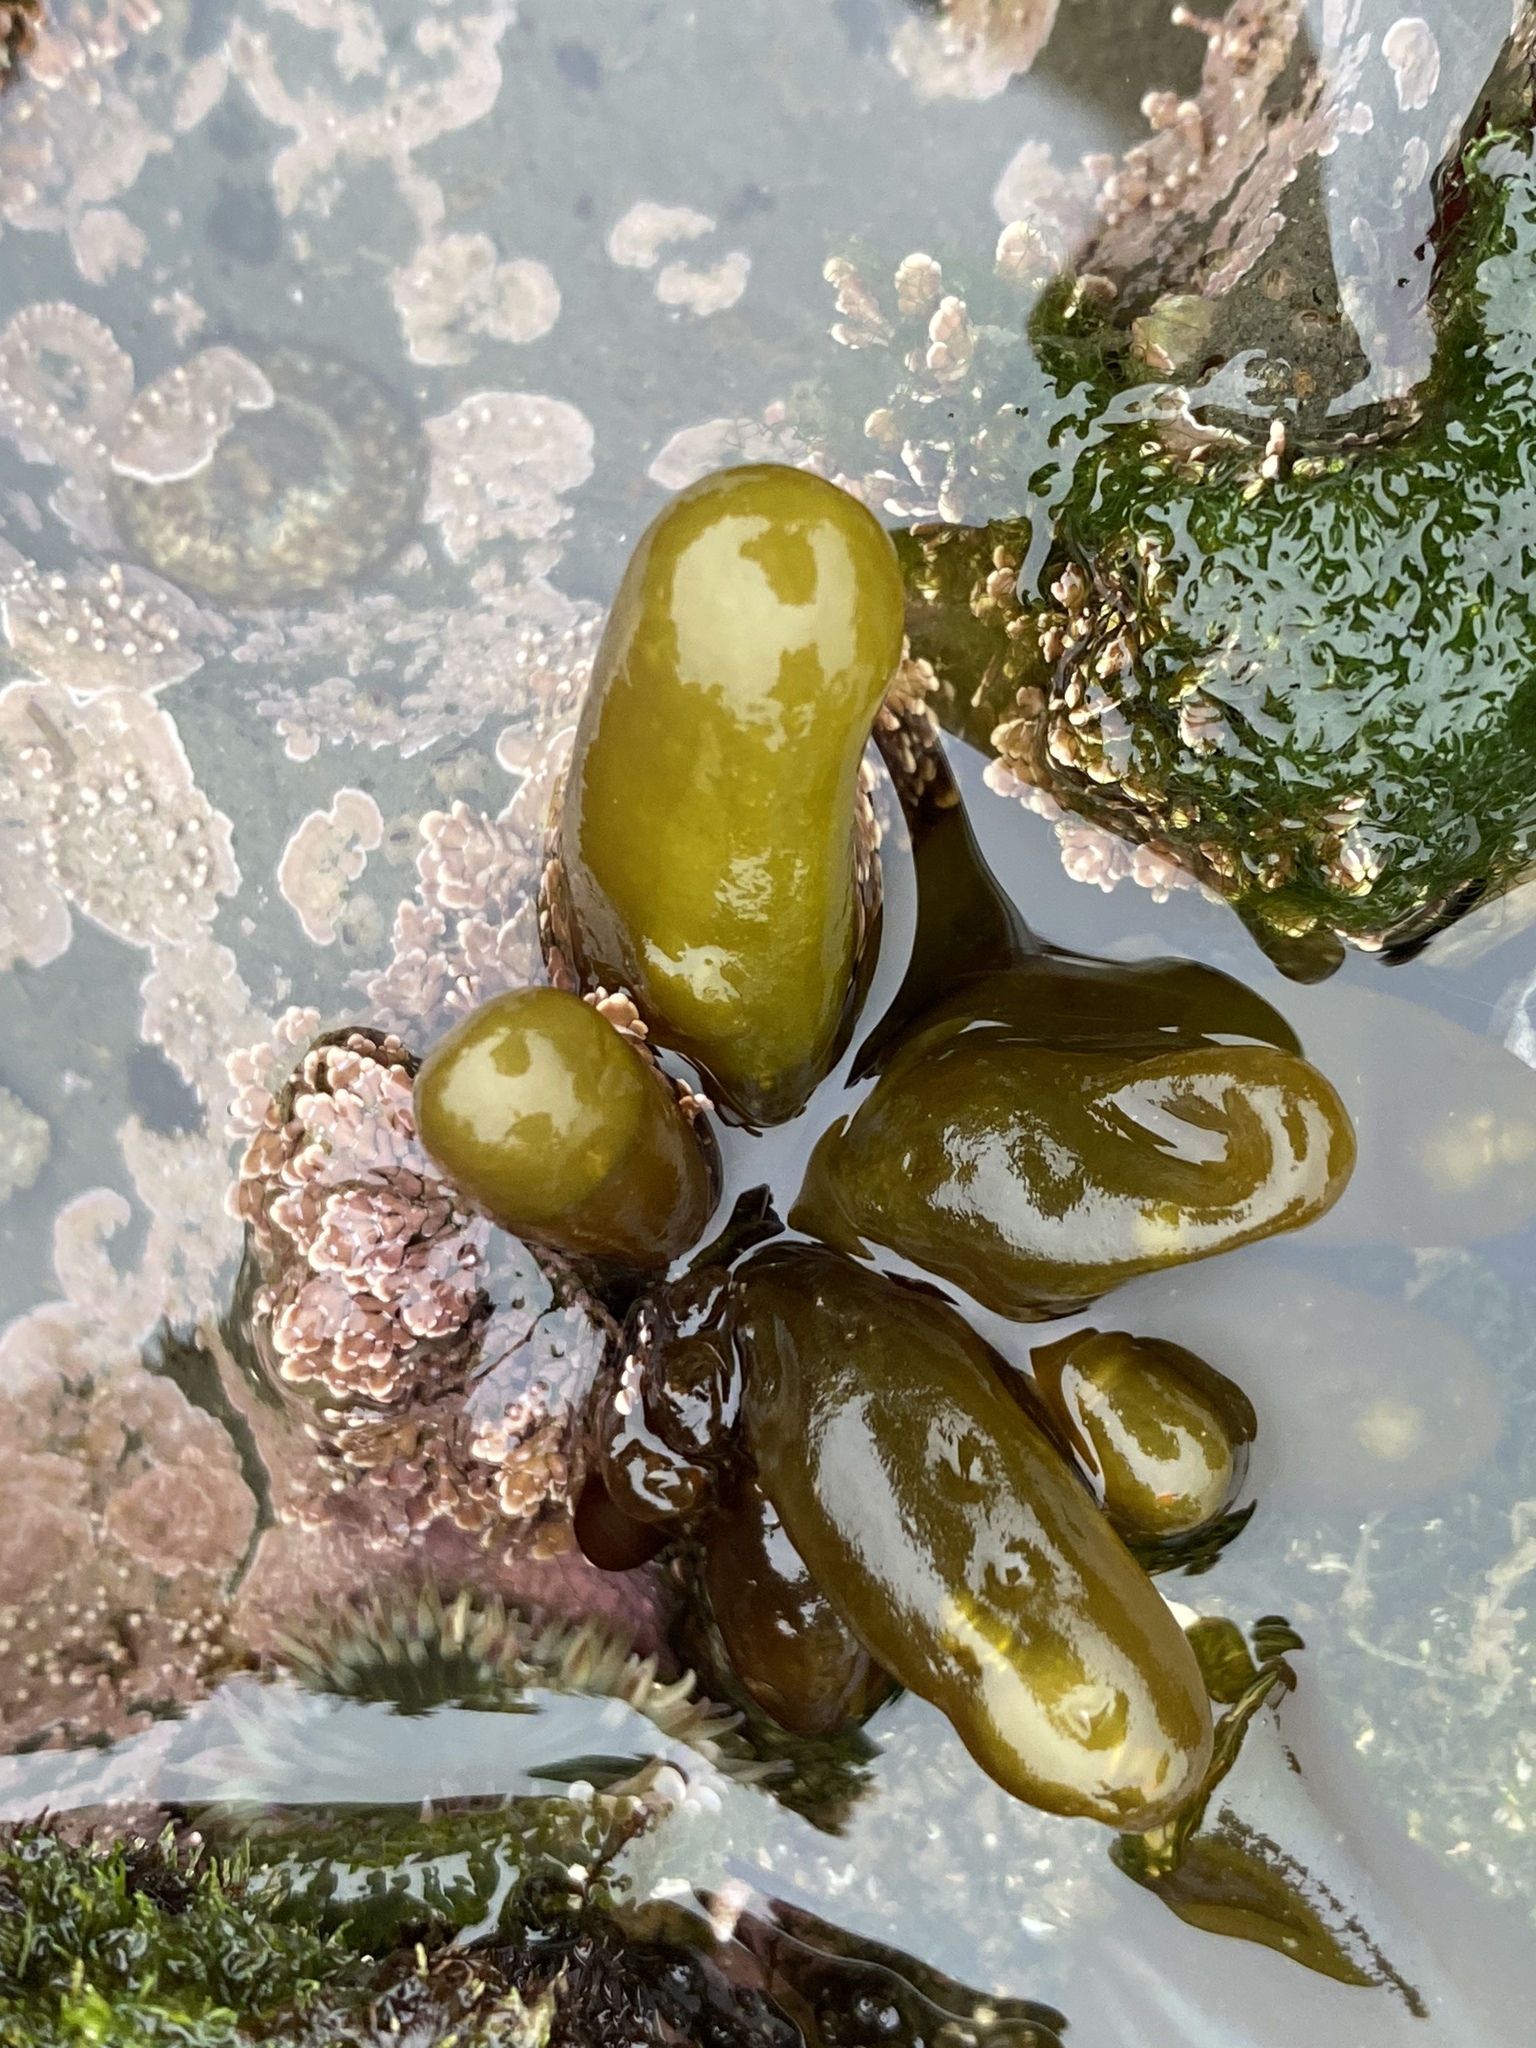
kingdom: Plantae
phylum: Rhodophyta
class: Florideophyceae
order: Palmariales
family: Palmariaceae
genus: Halosaccion
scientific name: Halosaccion glandiforme
